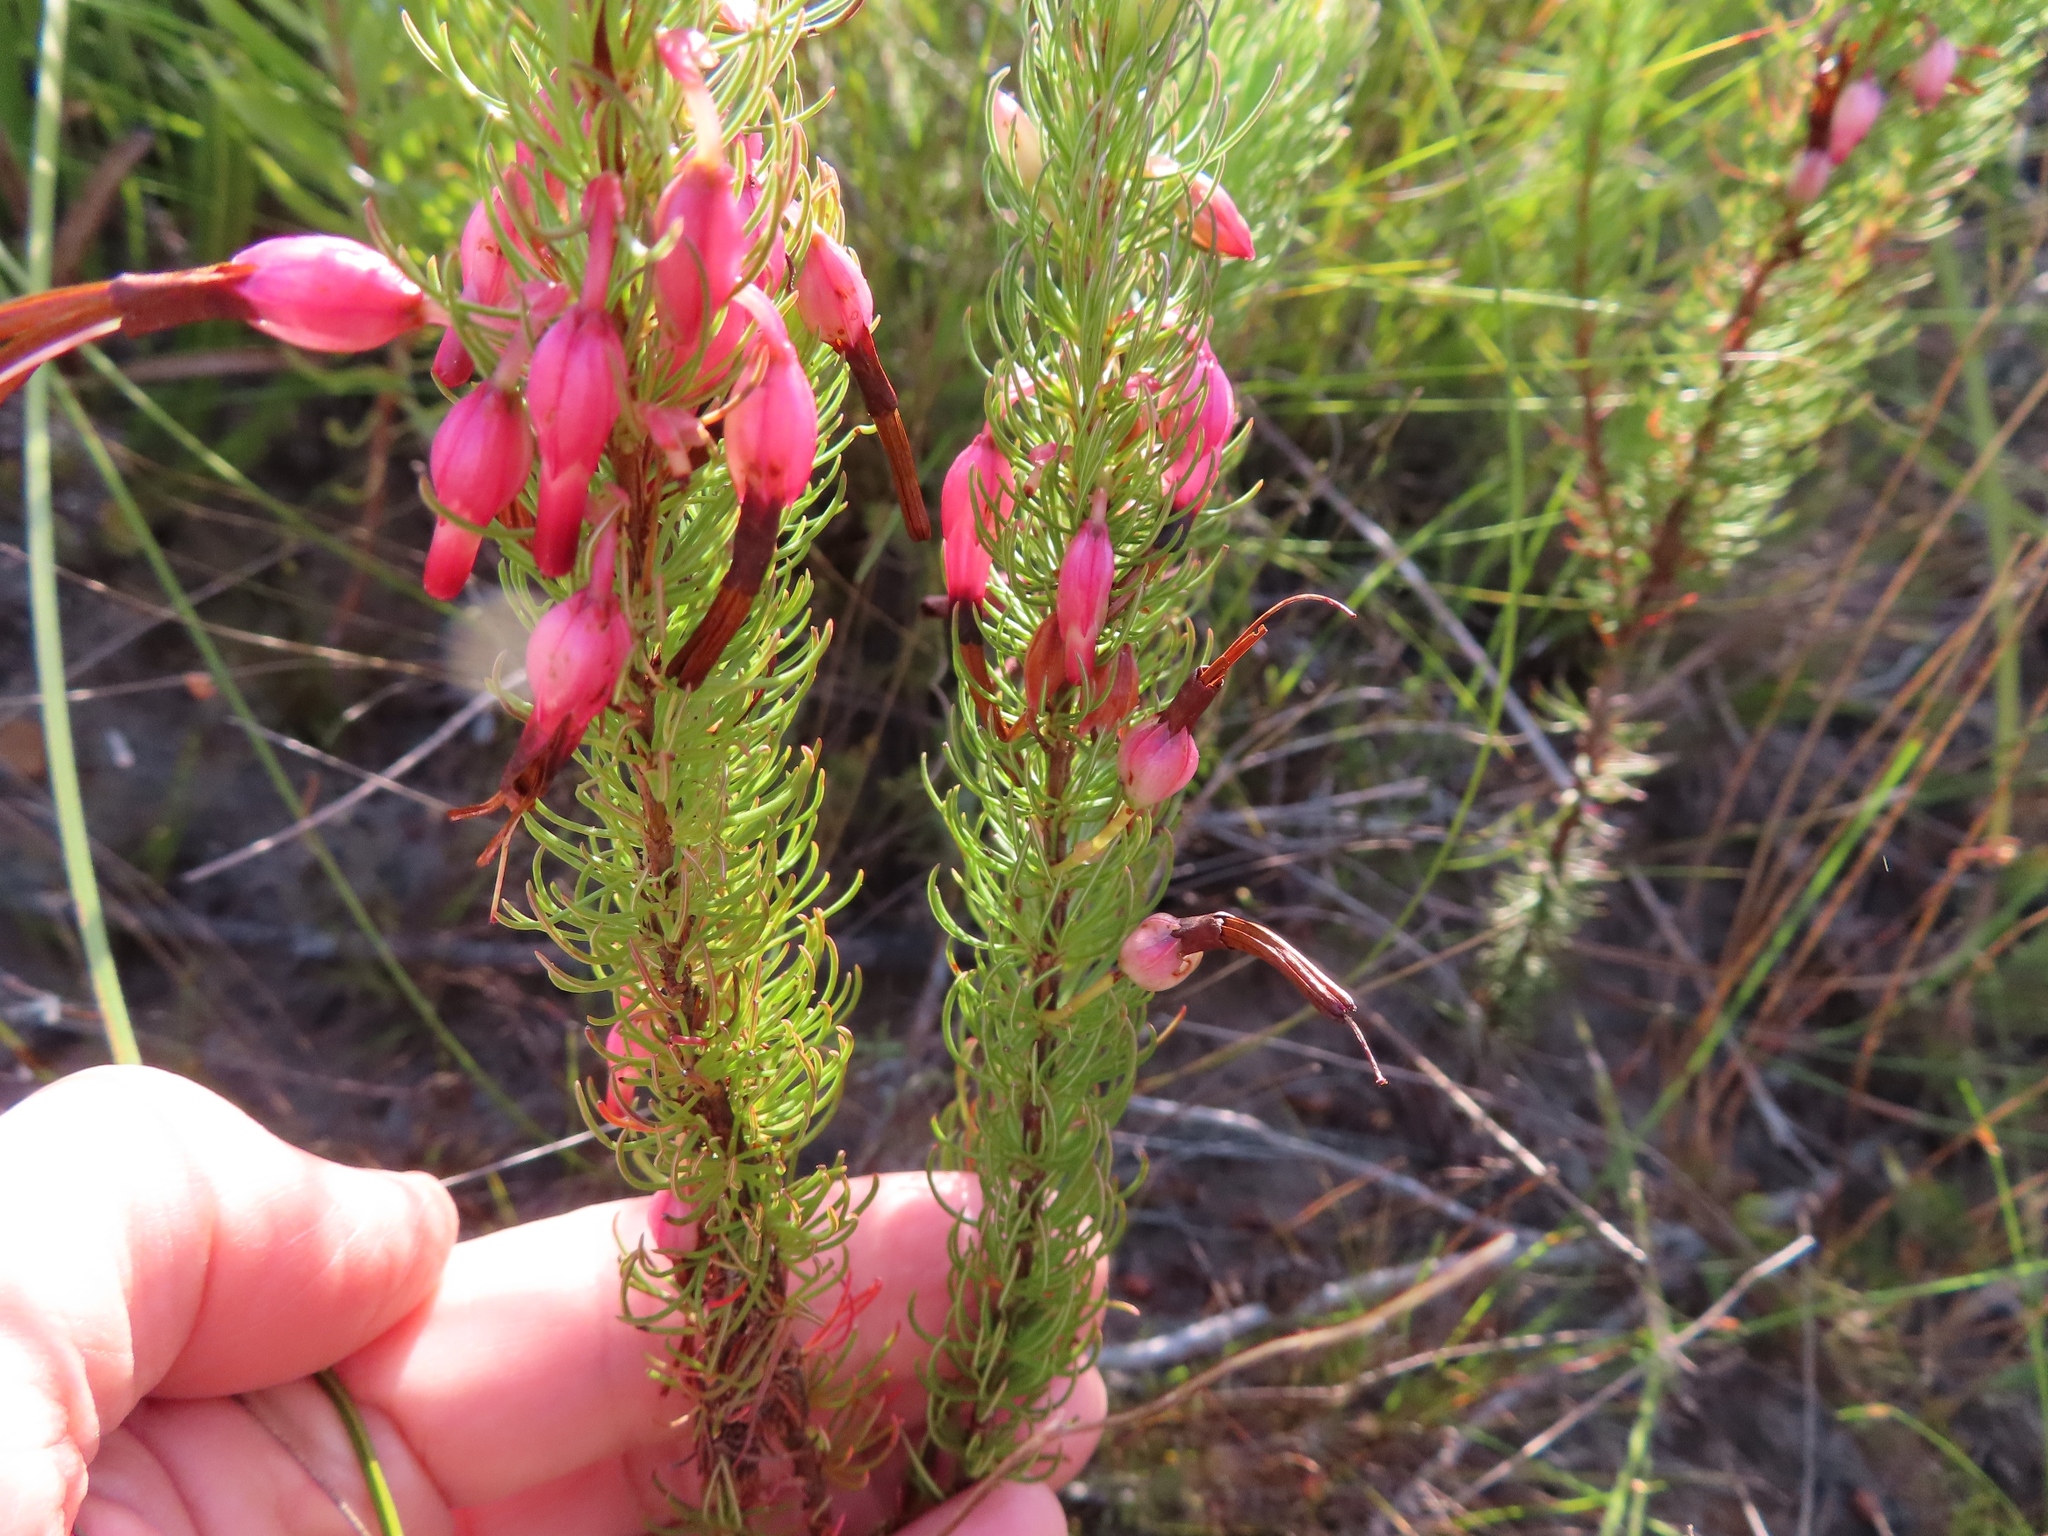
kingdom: Plantae
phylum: Tracheophyta
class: Magnoliopsida
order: Ericales
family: Ericaceae
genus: Erica
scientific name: Erica plukenetii
